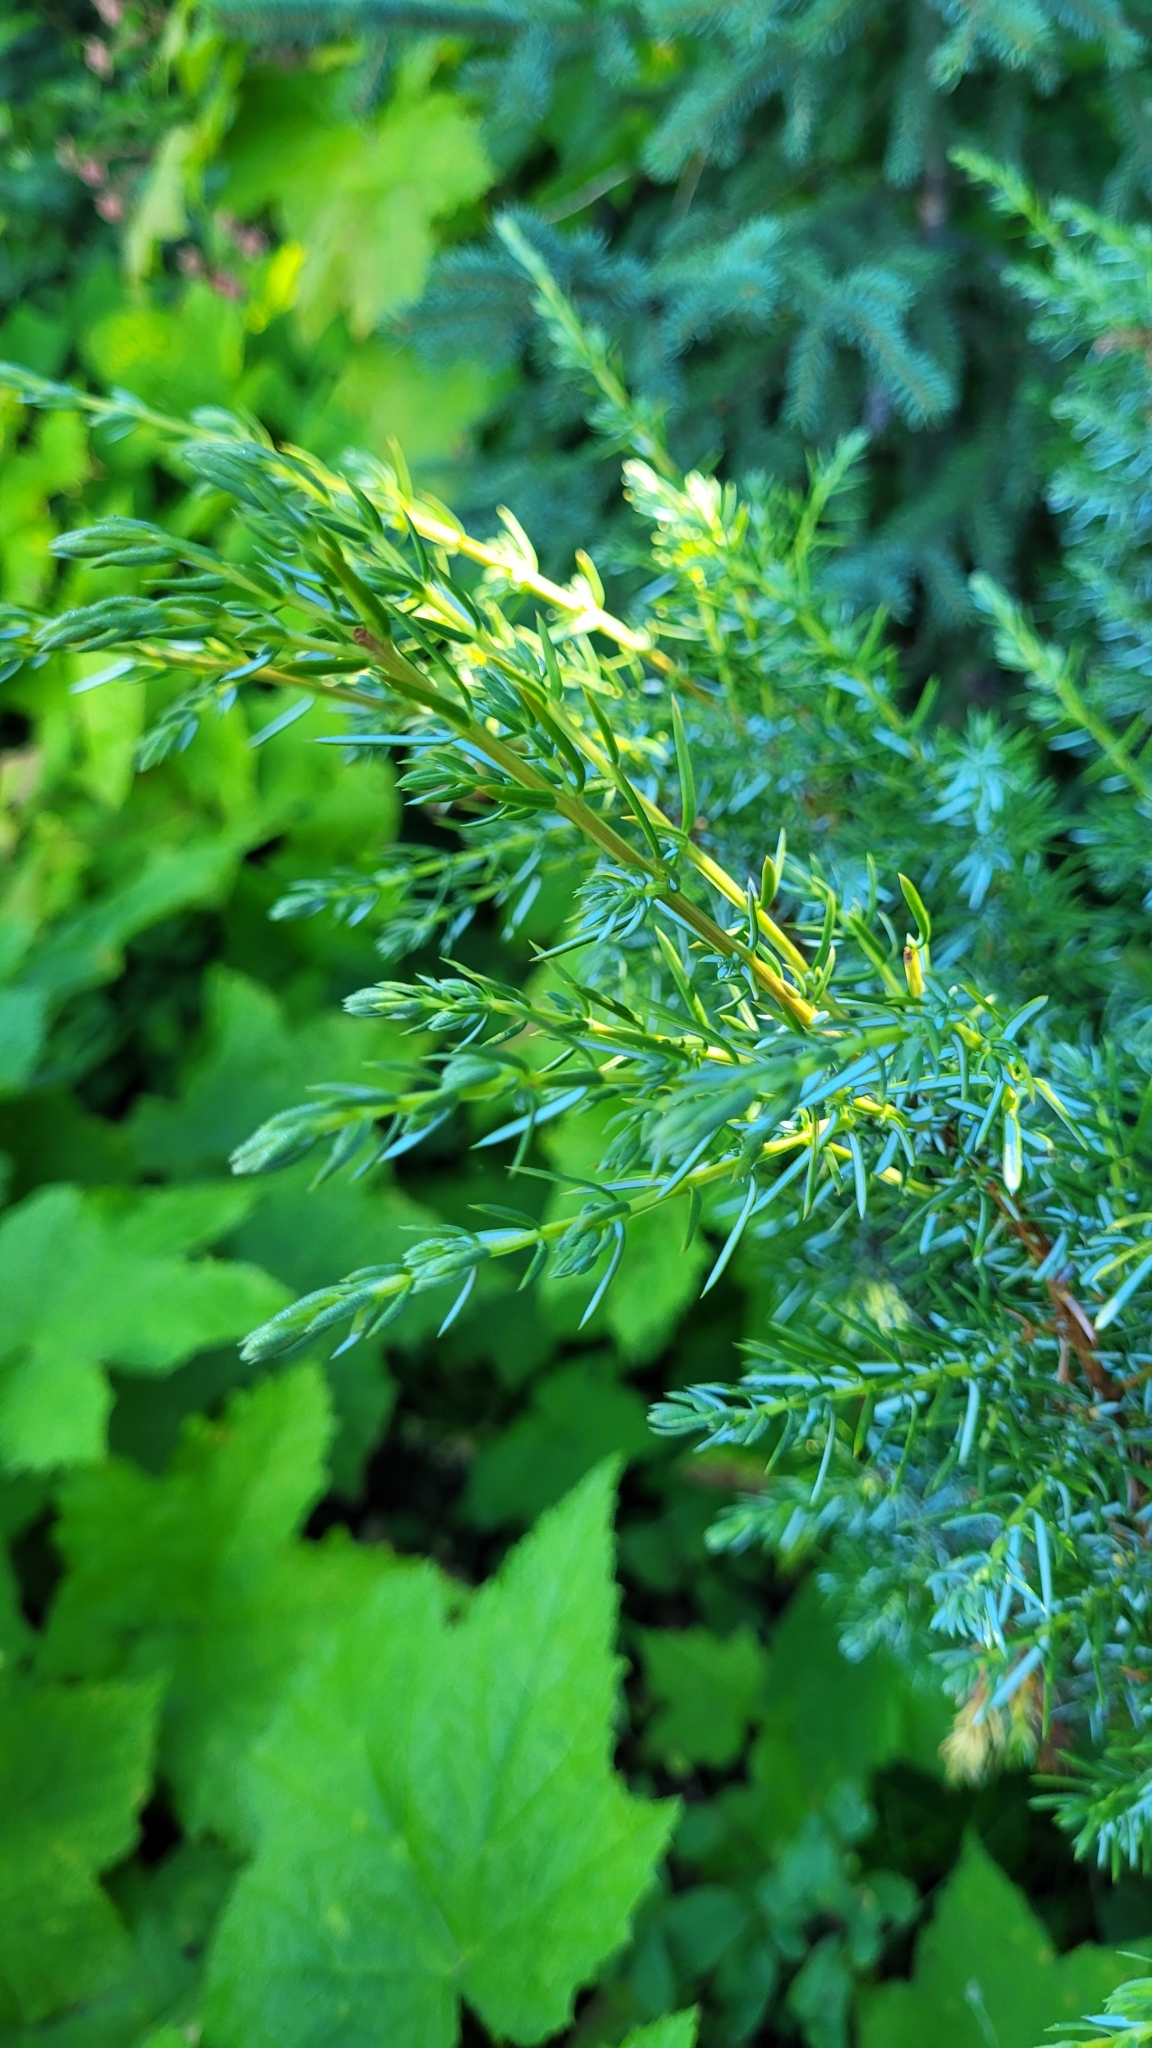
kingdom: Plantae
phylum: Tracheophyta
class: Pinopsida
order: Pinales
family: Cupressaceae
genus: Juniperus
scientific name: Juniperus communis
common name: Common juniper
